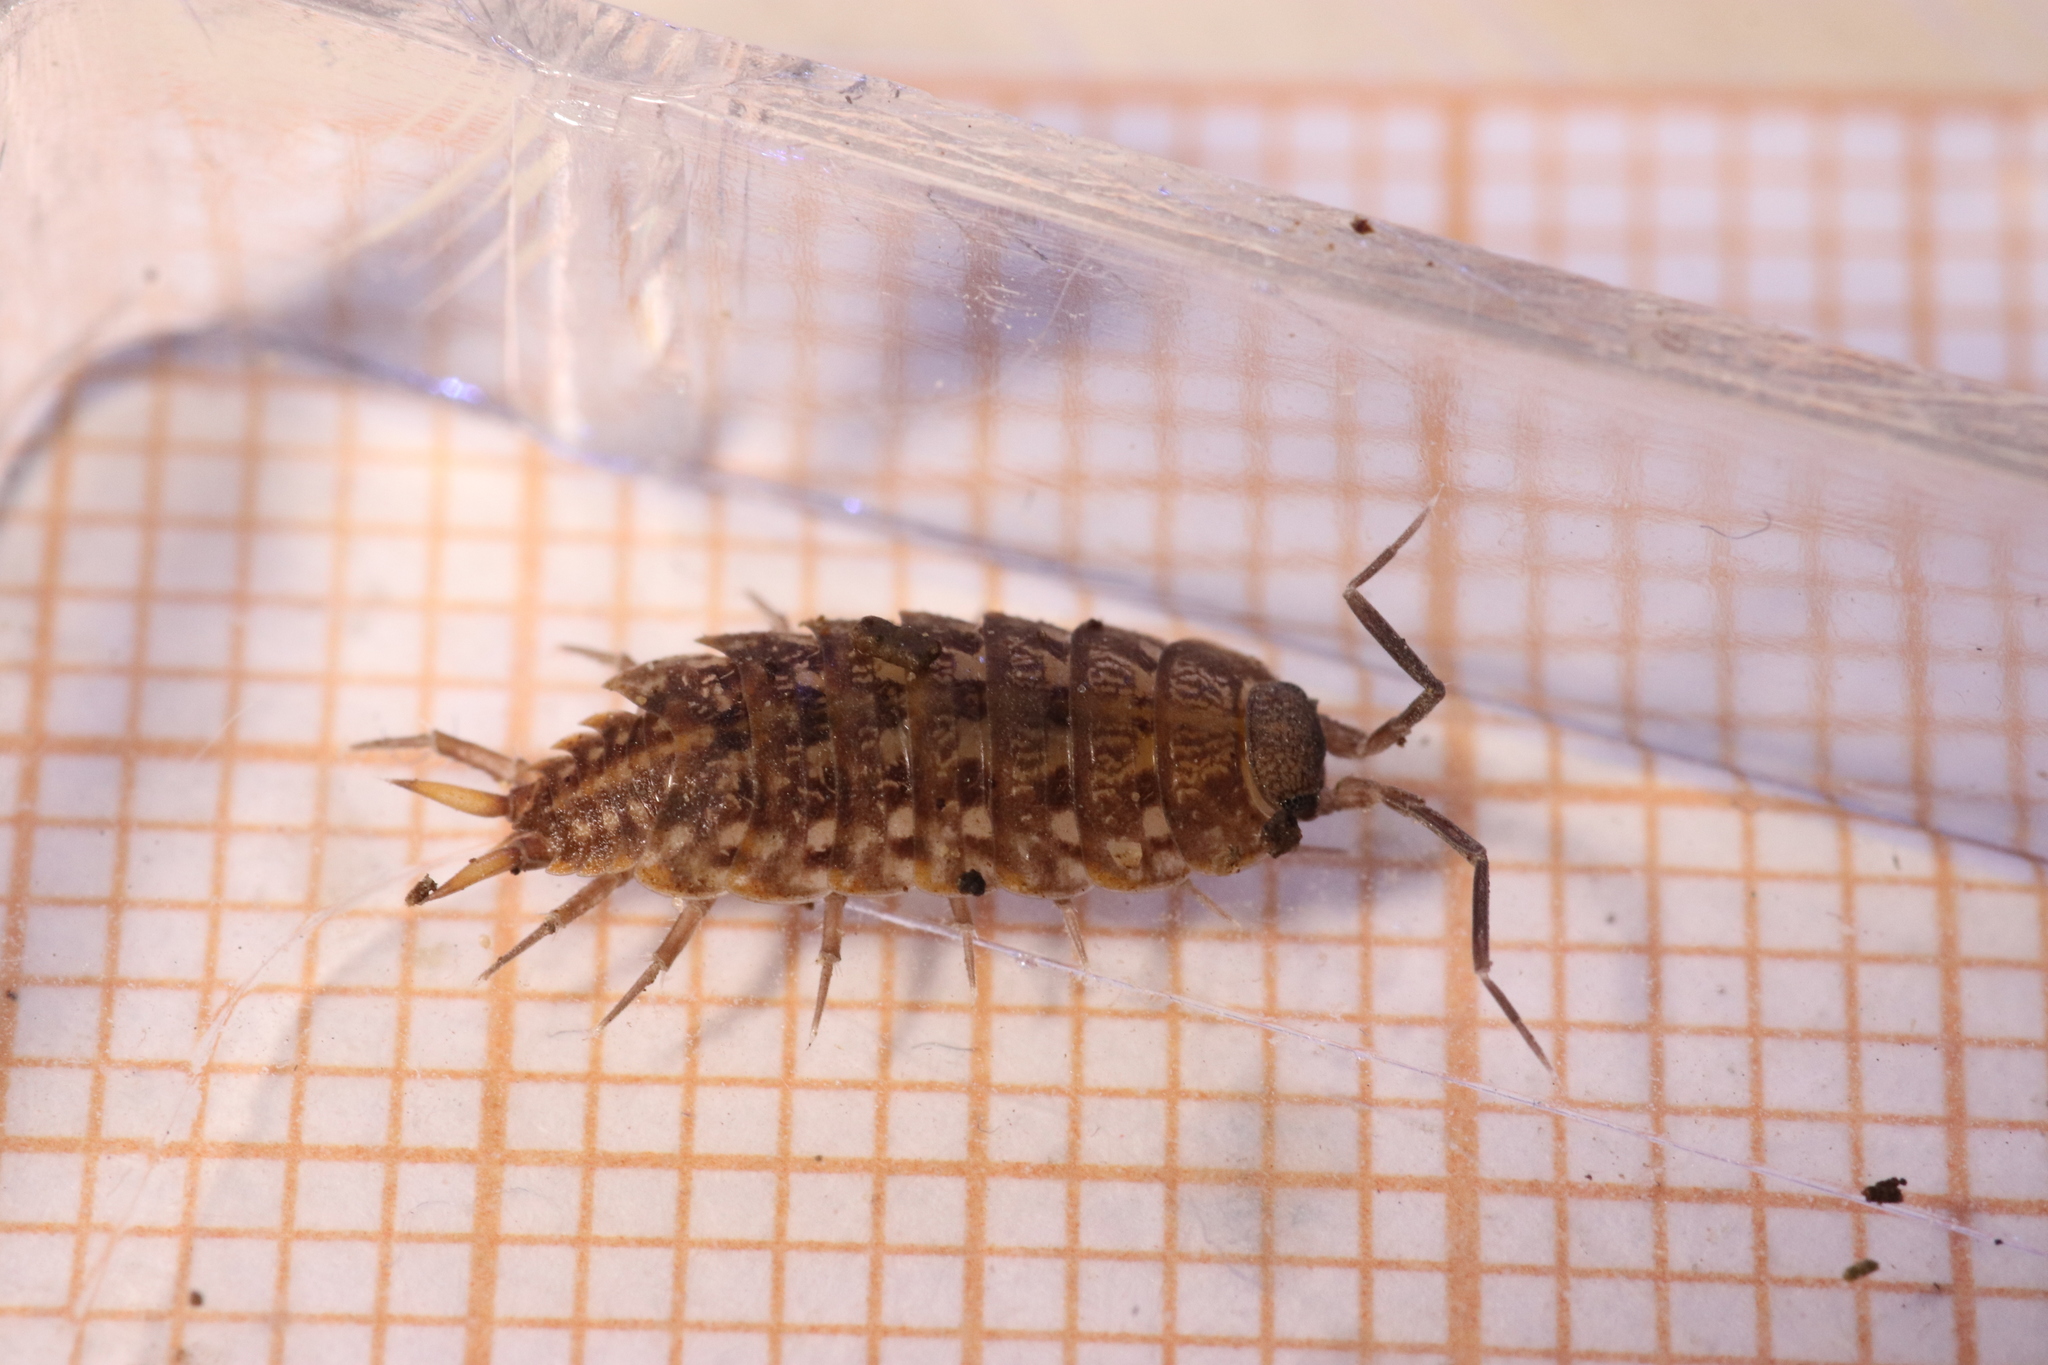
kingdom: Animalia
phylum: Arthropoda
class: Malacostraca
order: Isopoda
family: Agnaridae
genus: Orthometopon
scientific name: Orthometopon planum
